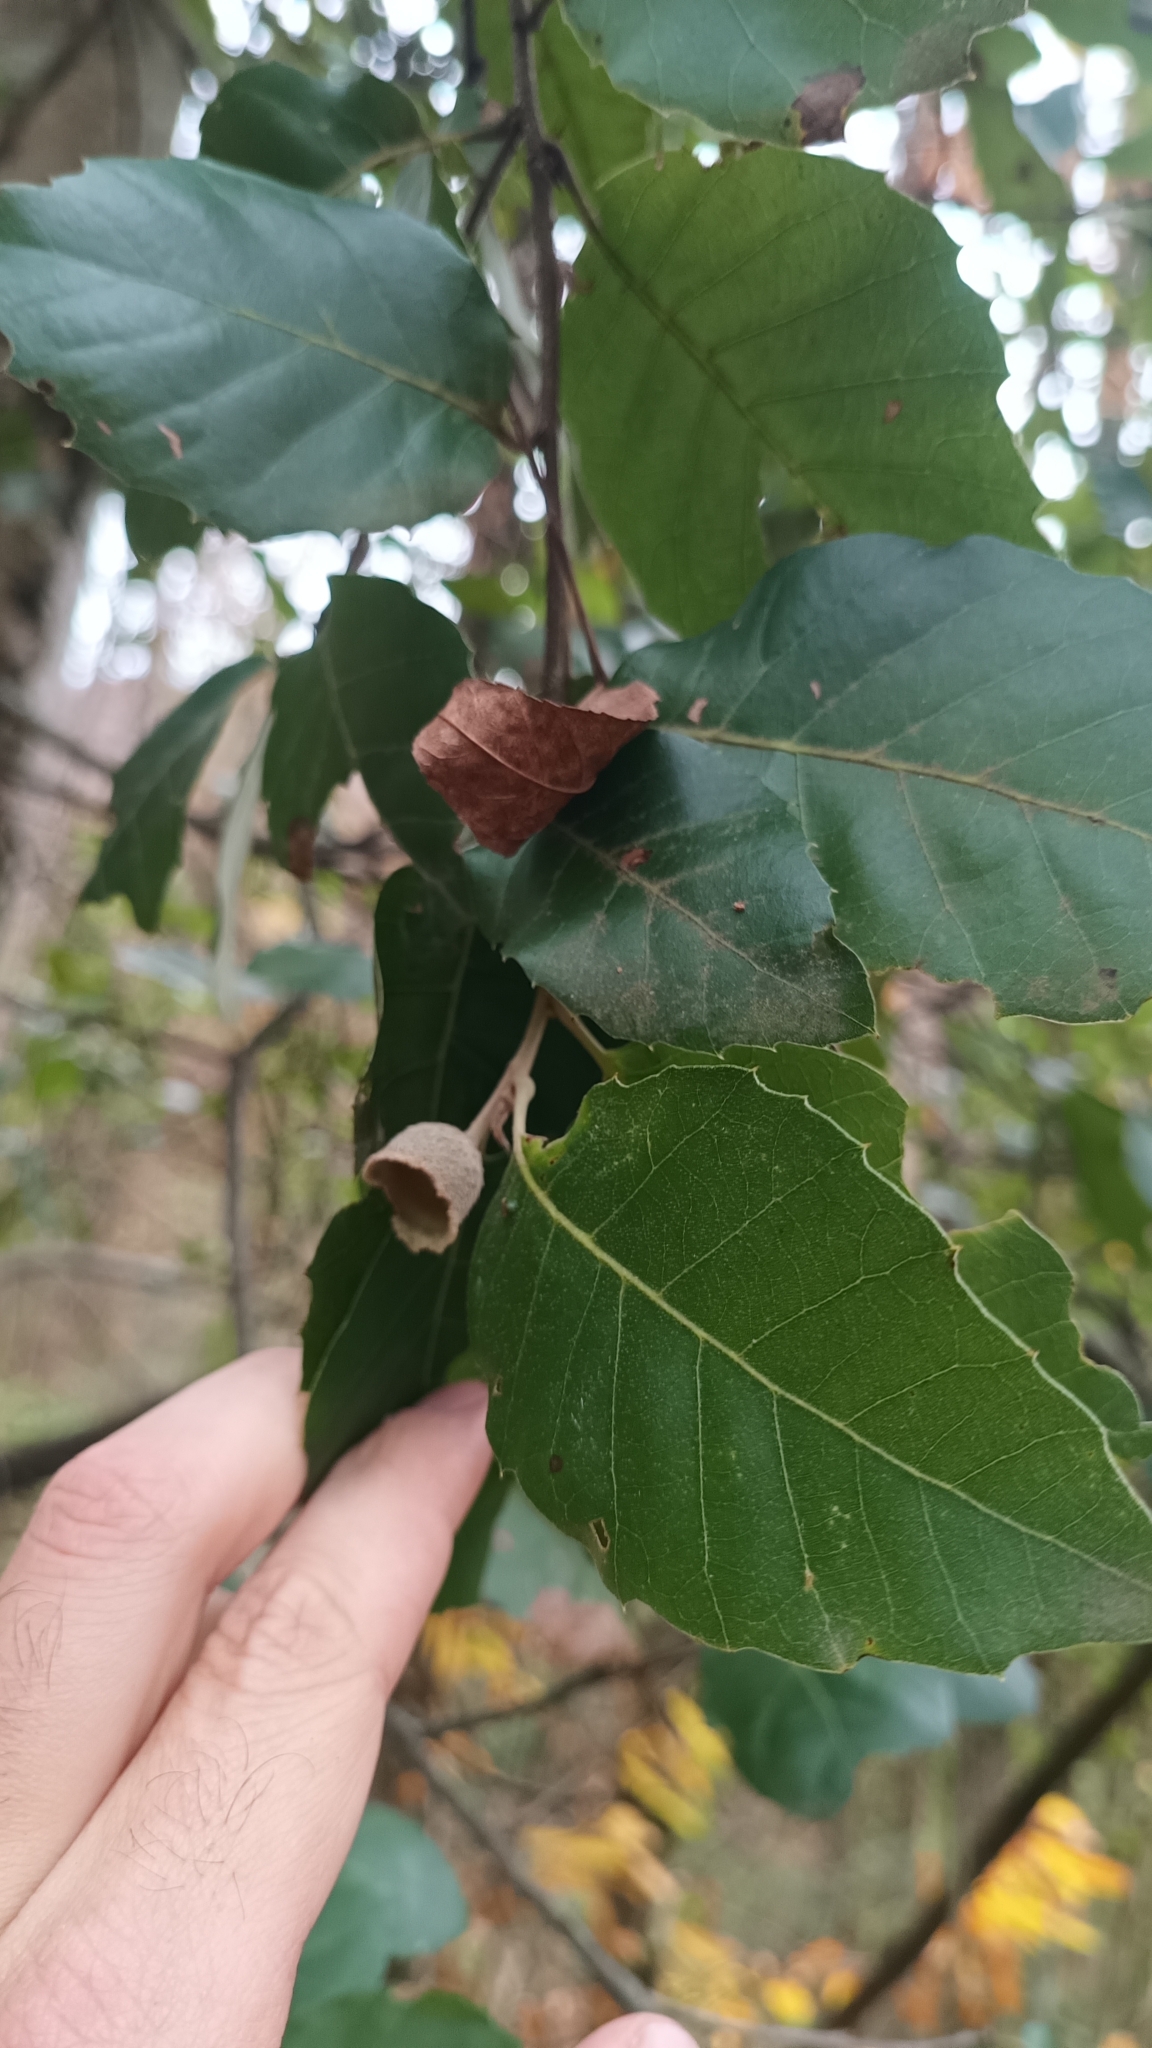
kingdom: Plantae
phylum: Tracheophyta
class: Magnoliopsida
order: Fagales
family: Fagaceae
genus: Quercus
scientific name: Quercus ilex
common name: Evergreen oak
